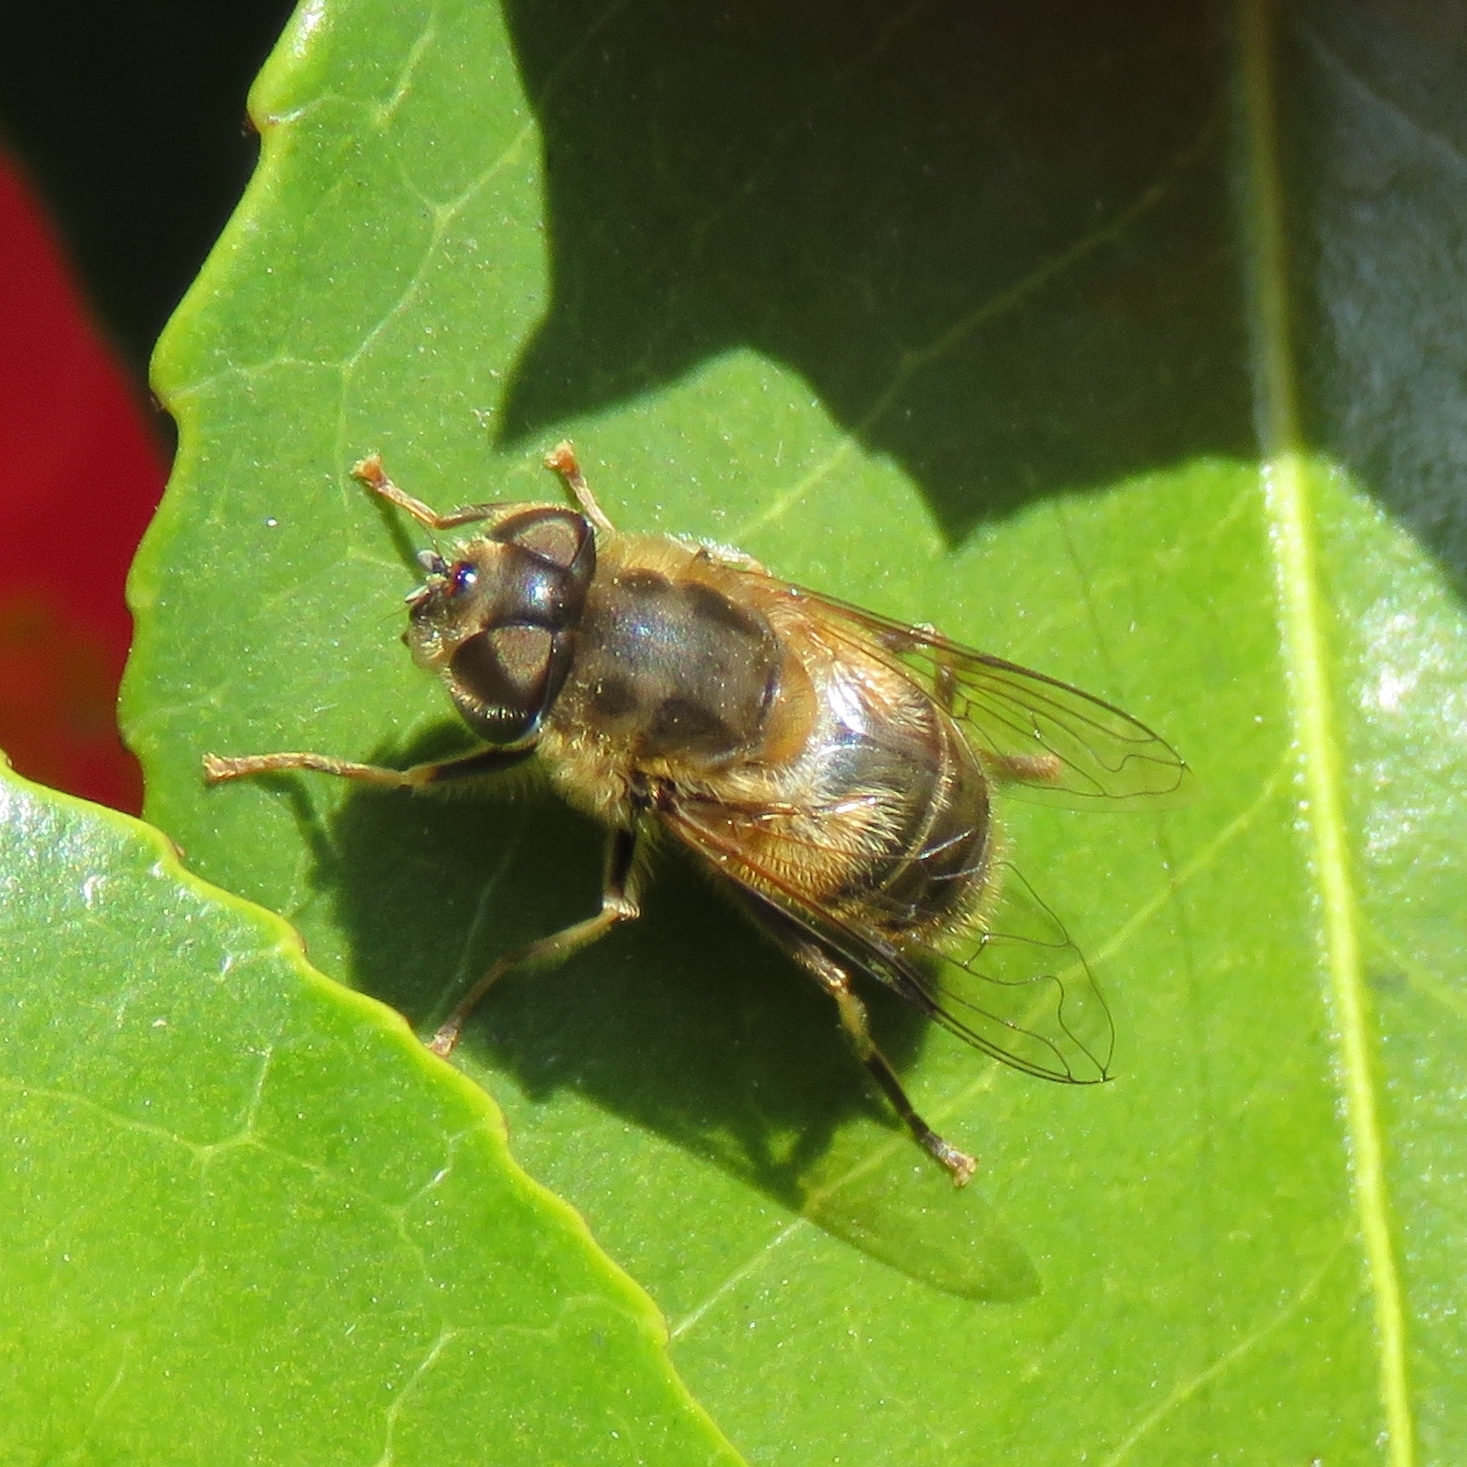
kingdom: Animalia
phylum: Arthropoda
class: Insecta
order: Diptera
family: Syrphidae
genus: Eristalis
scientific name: Eristalis pertinax
